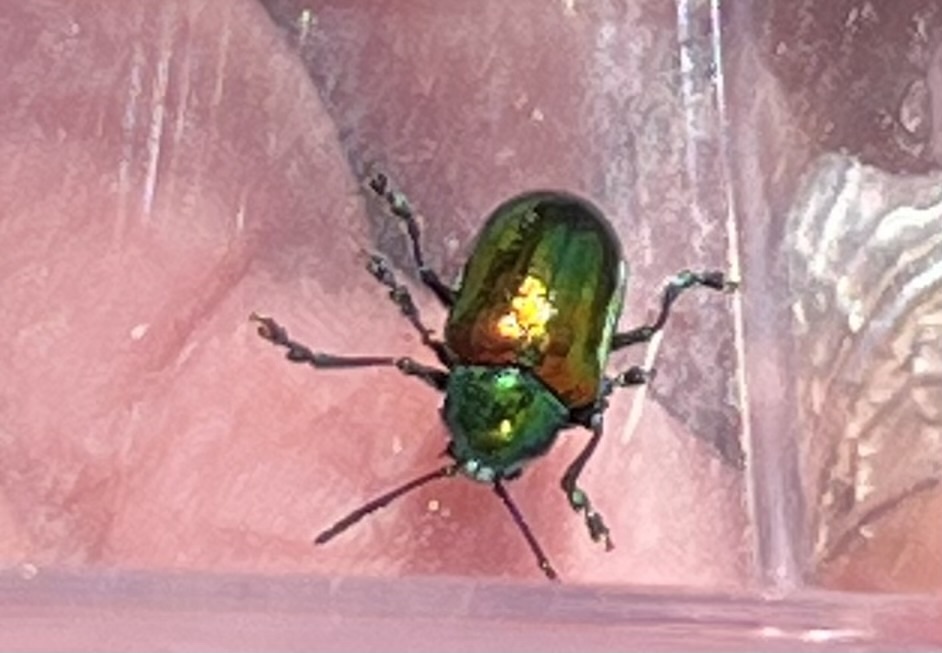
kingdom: Animalia
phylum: Arthropoda
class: Insecta
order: Coleoptera
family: Chrysomelidae
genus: Chrysochus
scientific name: Chrysochus auratus
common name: Dogbane leaf beetle
